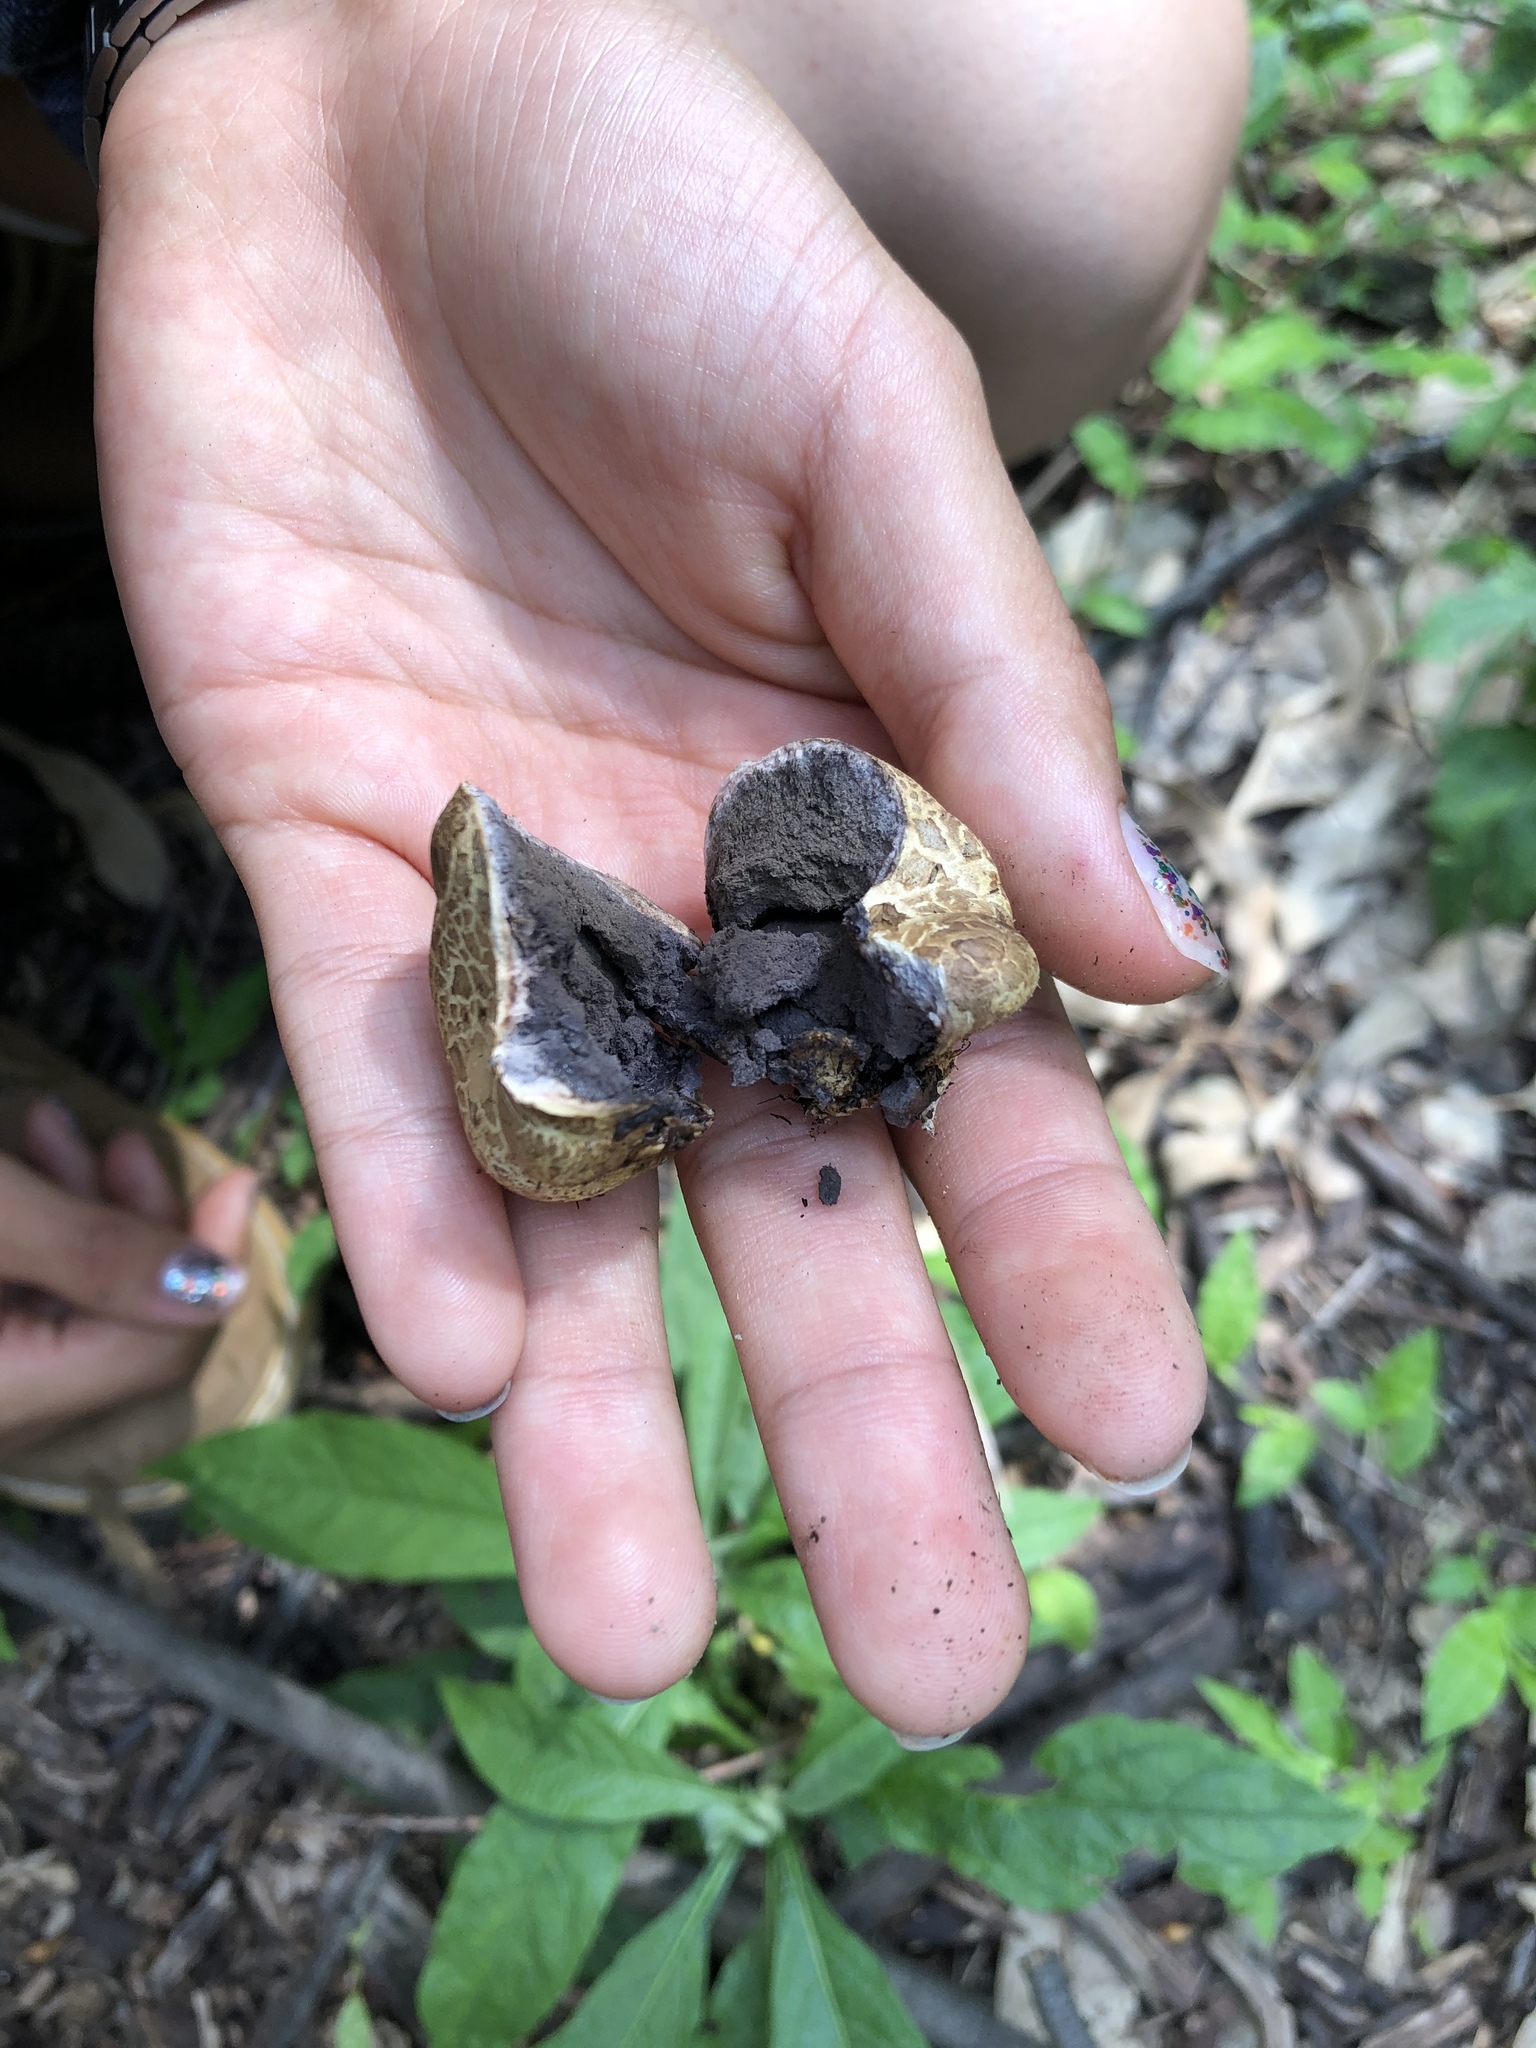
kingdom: Fungi
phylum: Basidiomycota
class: Agaricomycetes
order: Boletales
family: Sclerodermataceae
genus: Scleroderma
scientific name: Scleroderma citrinum
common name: Common earthball
